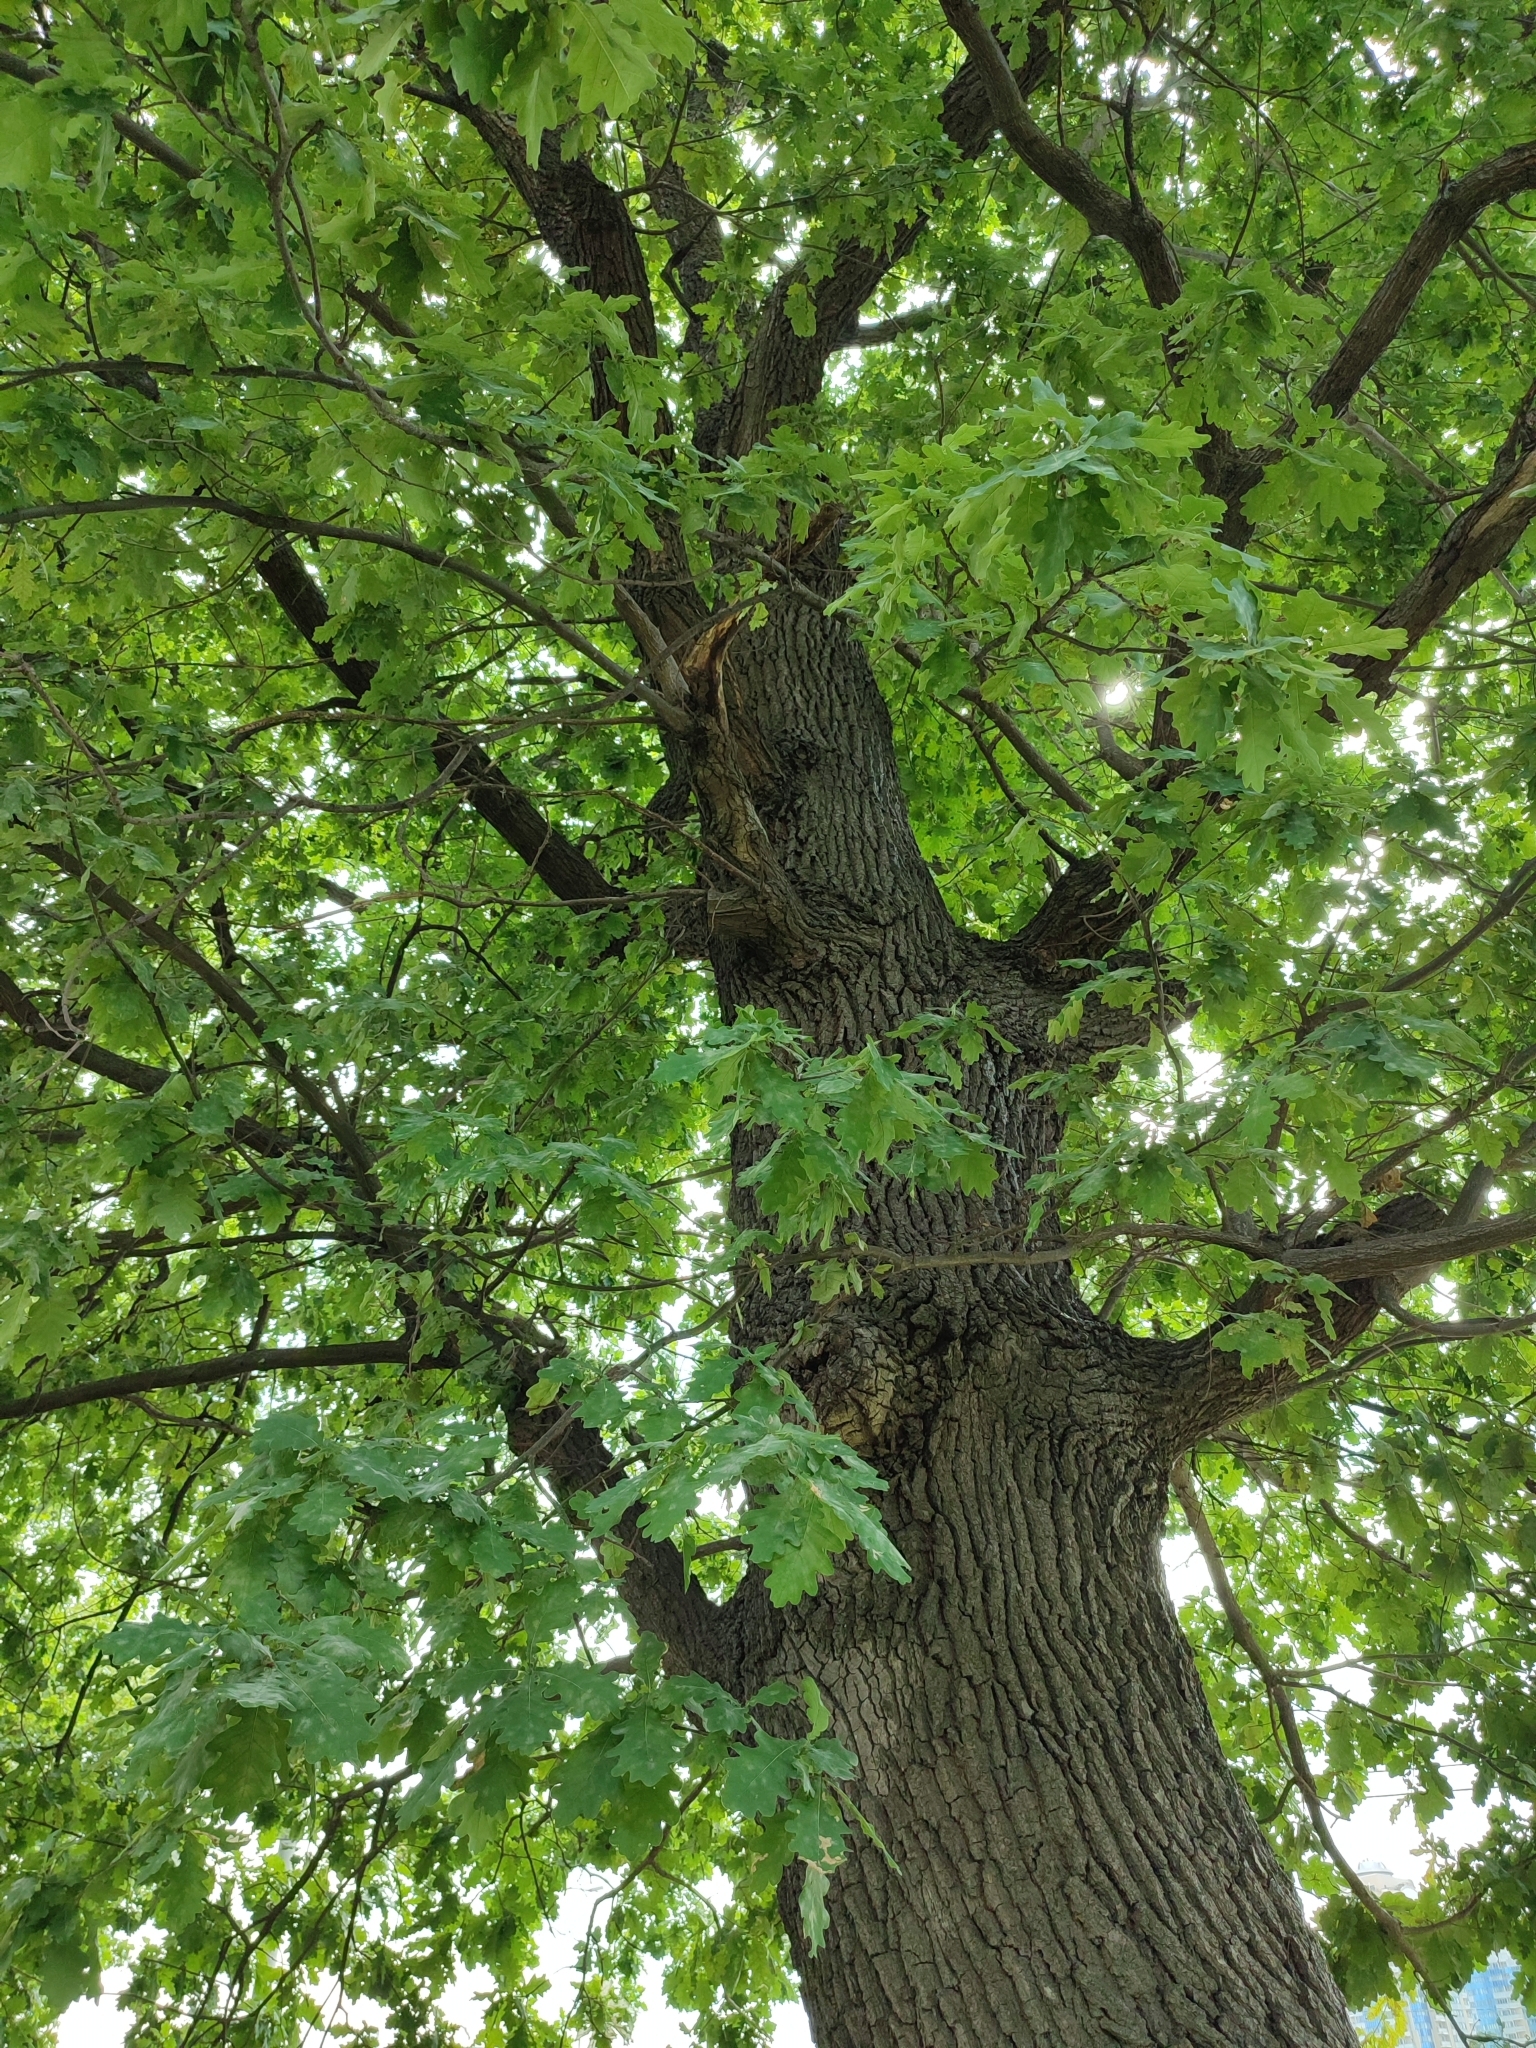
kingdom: Plantae
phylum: Tracheophyta
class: Magnoliopsida
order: Fagales
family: Fagaceae
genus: Quercus
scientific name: Quercus robur
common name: Pedunculate oak
